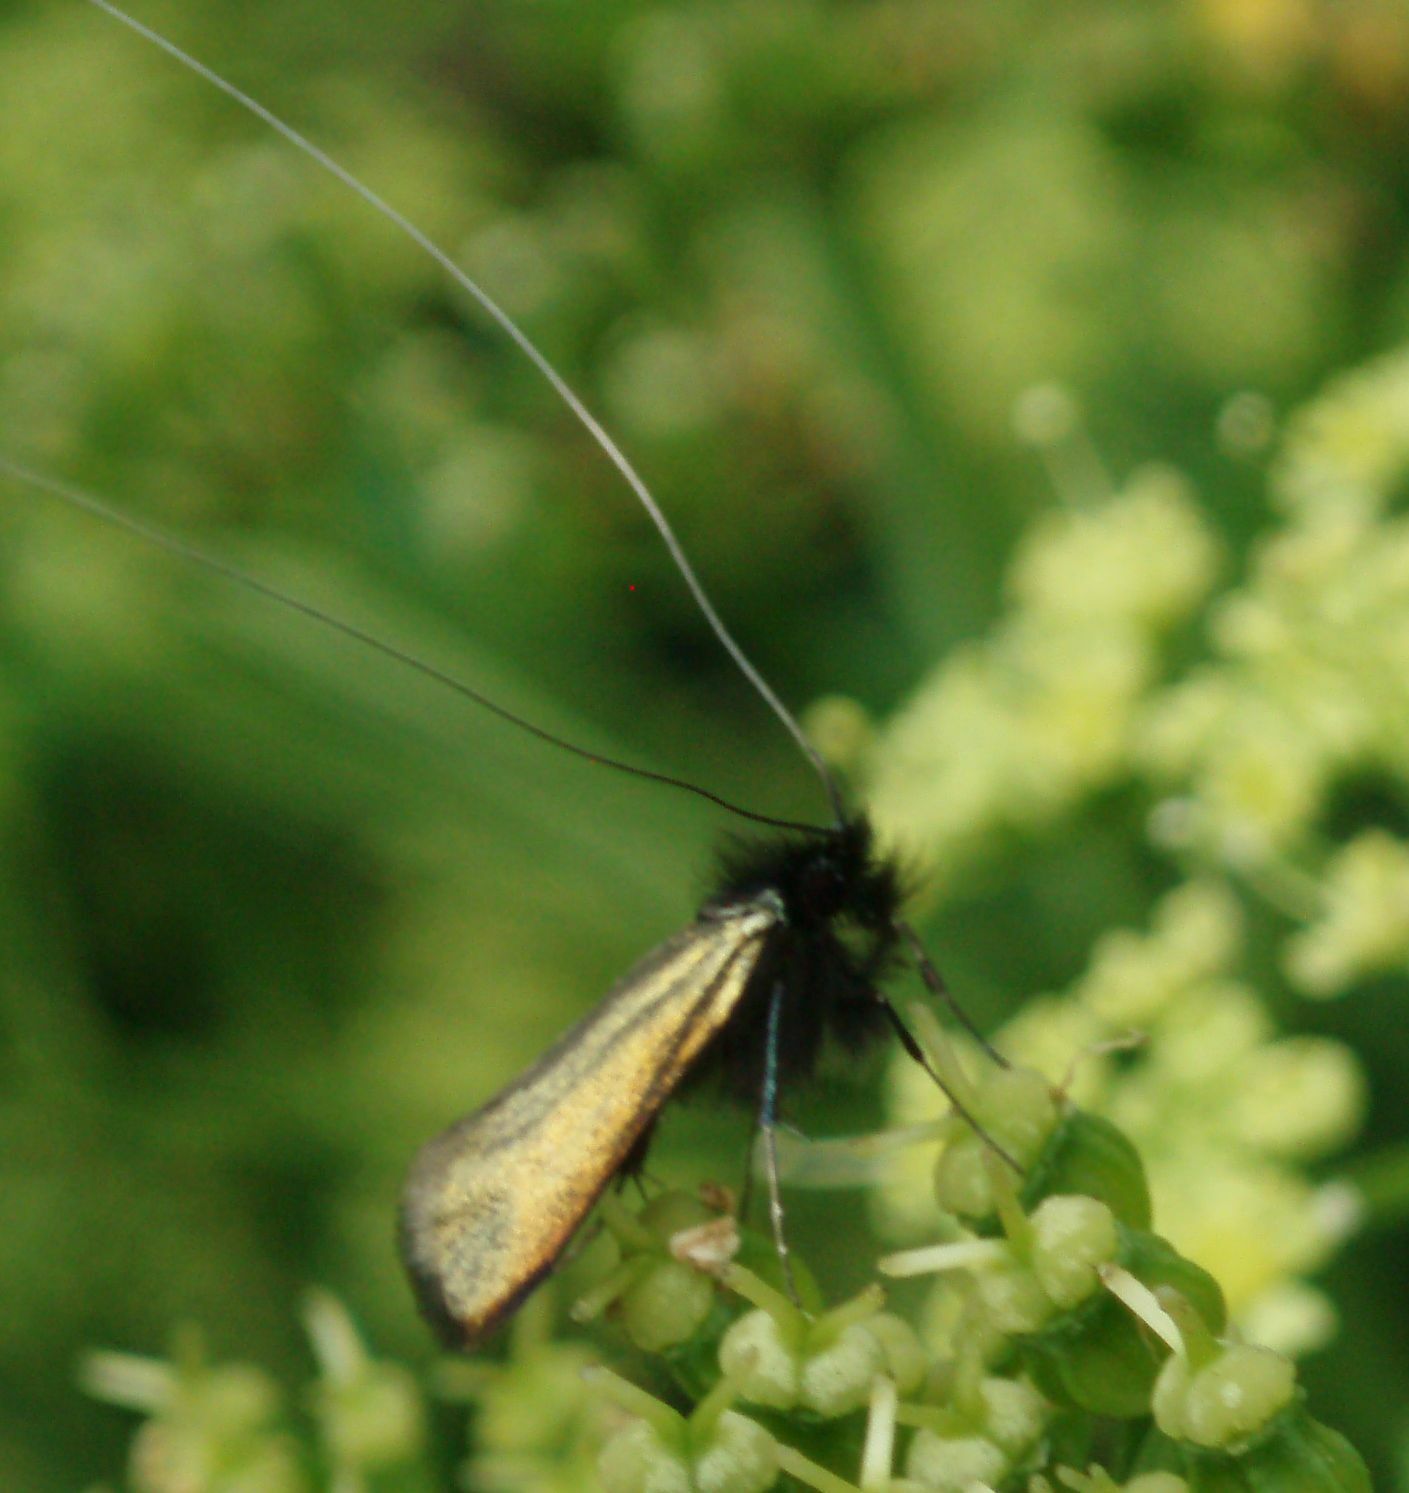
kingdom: Animalia
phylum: Arthropoda
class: Insecta
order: Lepidoptera
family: Adelidae
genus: Adela
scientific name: Adela viridella
